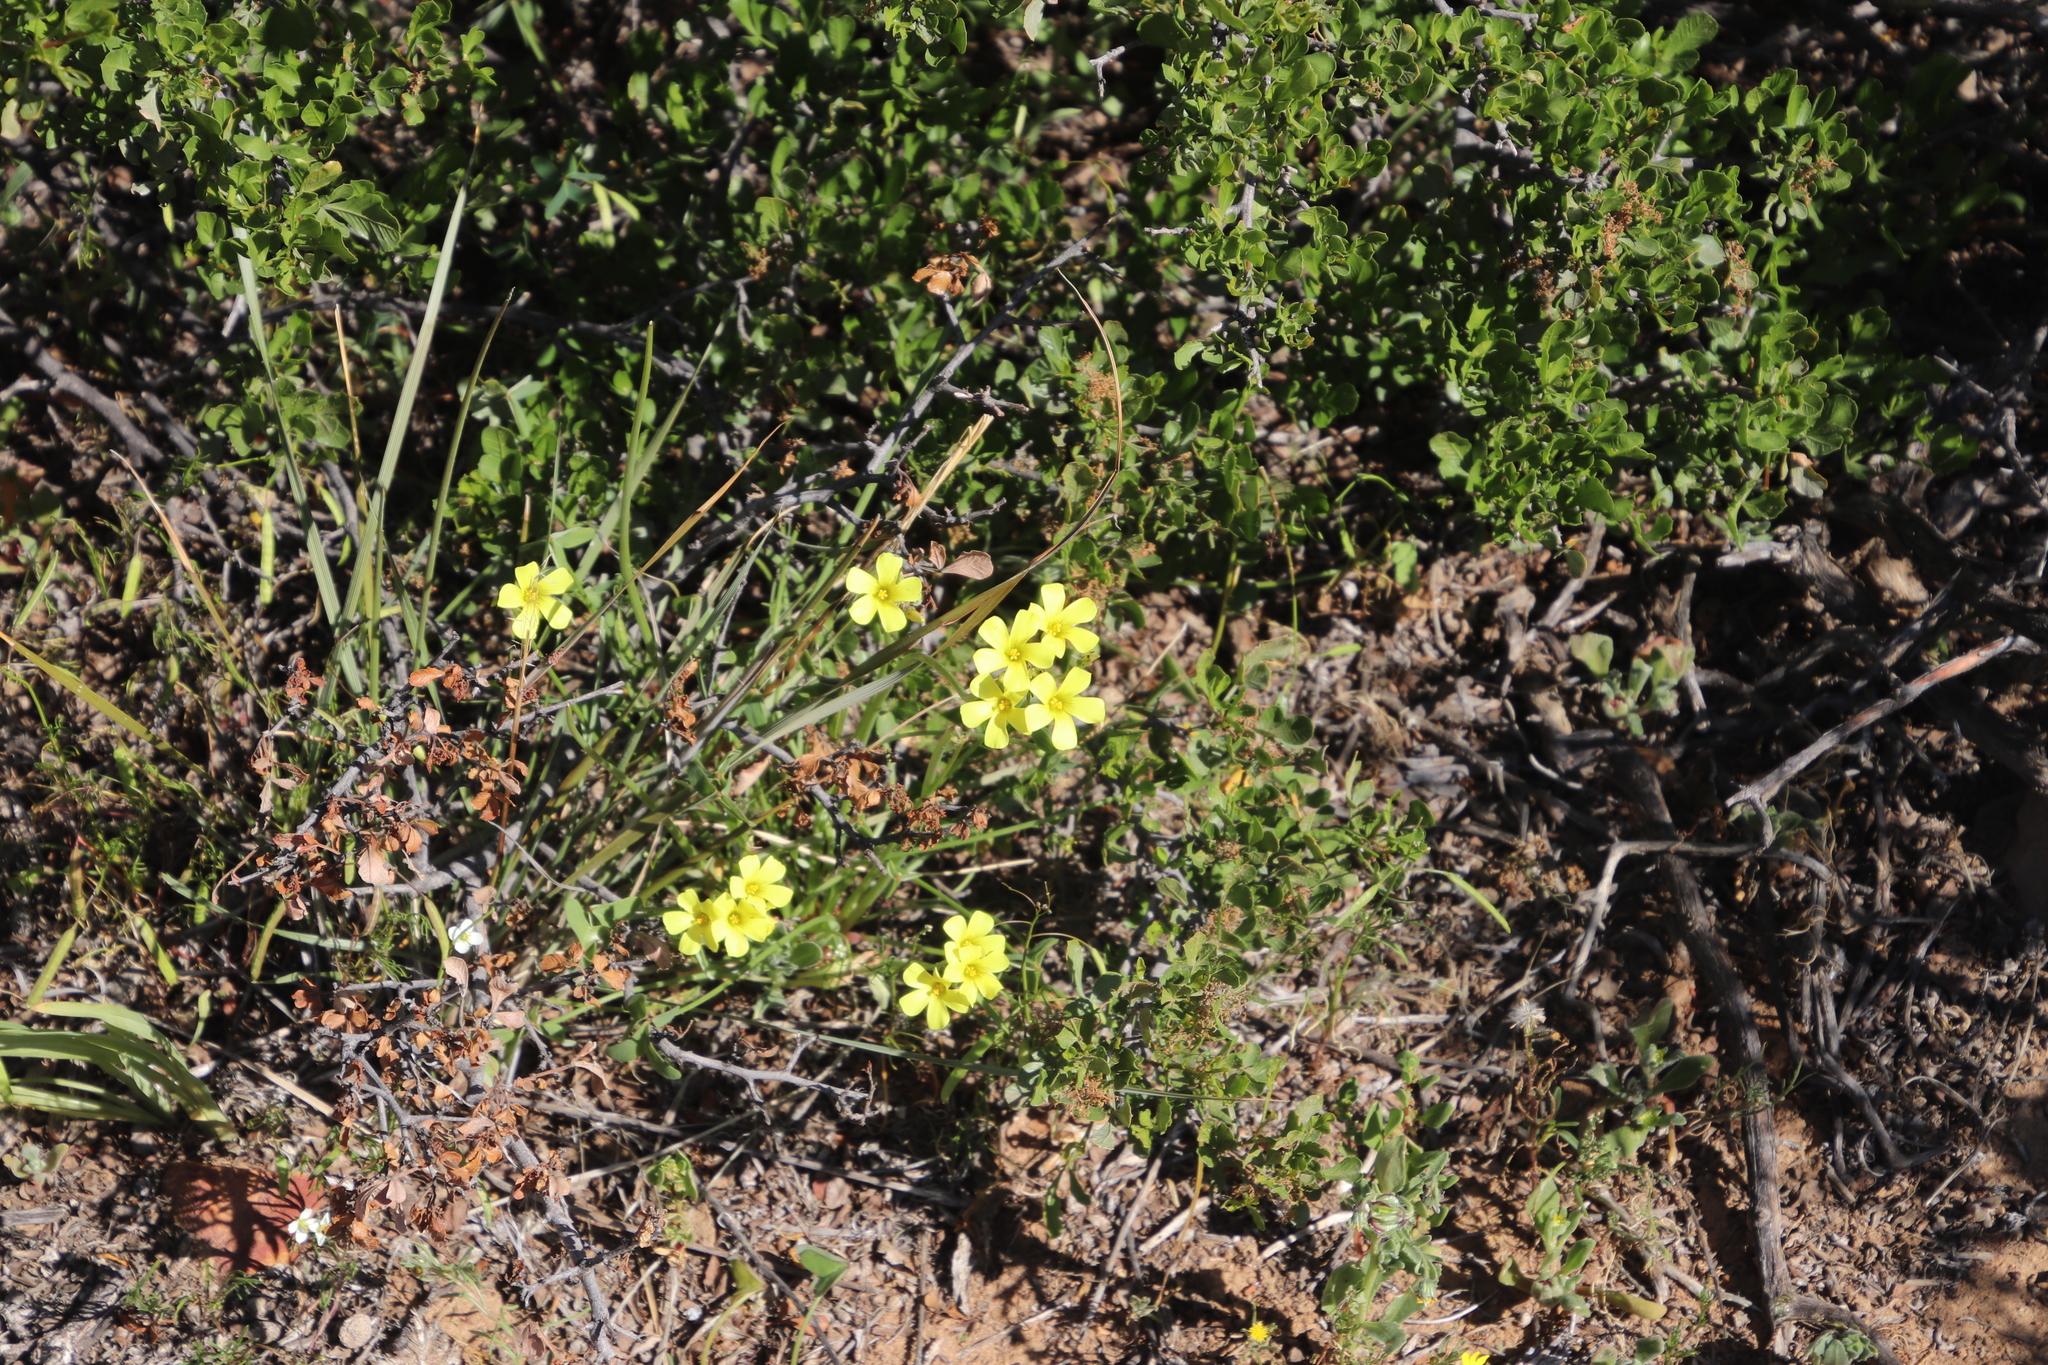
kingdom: Plantae
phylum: Tracheophyta
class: Magnoliopsida
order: Oxalidales
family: Oxalidaceae
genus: Oxalis
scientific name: Oxalis pes-caprae
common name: Bermuda-buttercup
